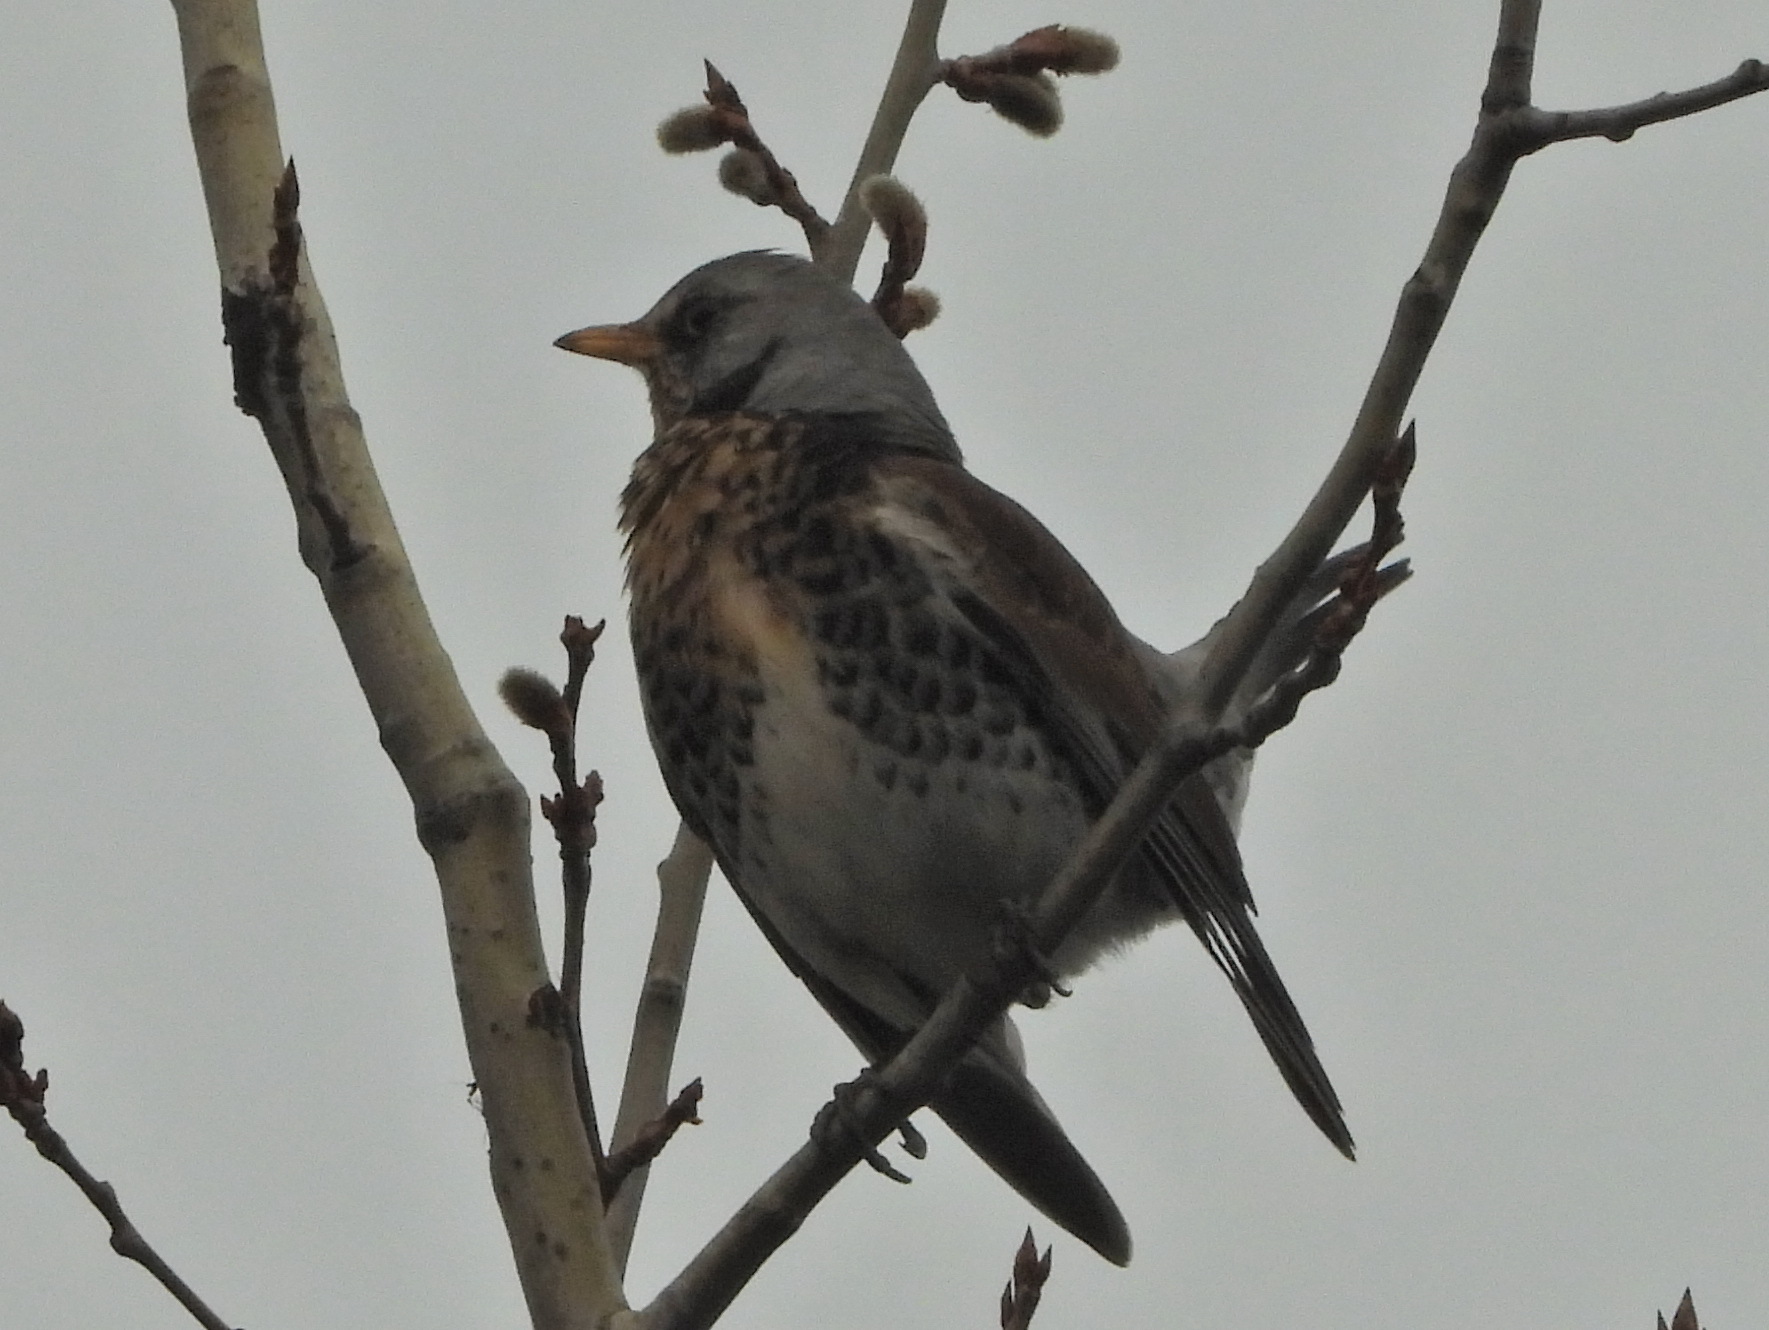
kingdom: Animalia
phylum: Chordata
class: Aves
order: Passeriformes
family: Turdidae
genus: Turdus
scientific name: Turdus pilaris
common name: Fieldfare
